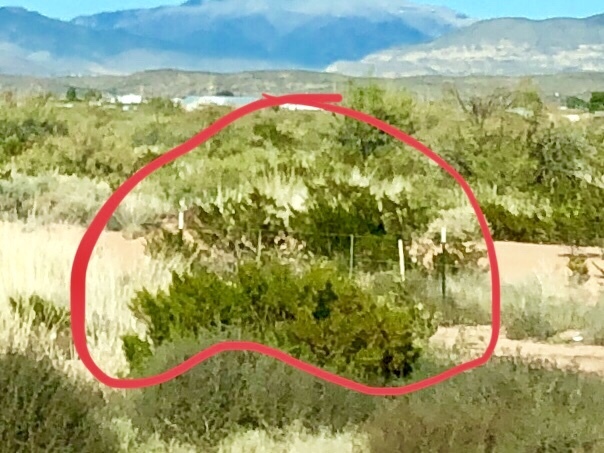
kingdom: Plantae
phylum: Tracheophyta
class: Magnoliopsida
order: Zygophyllales
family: Zygophyllaceae
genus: Larrea
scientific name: Larrea tridentata
